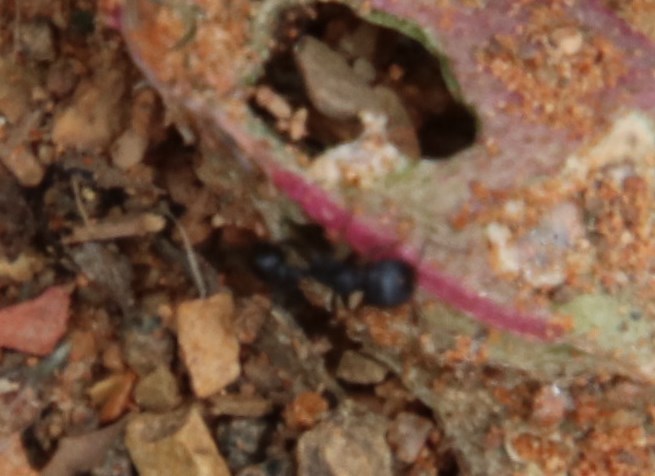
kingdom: Animalia
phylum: Arthropoda
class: Insecta
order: Hymenoptera
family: Formicidae
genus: Tetramorium
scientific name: Tetramorium solidum
